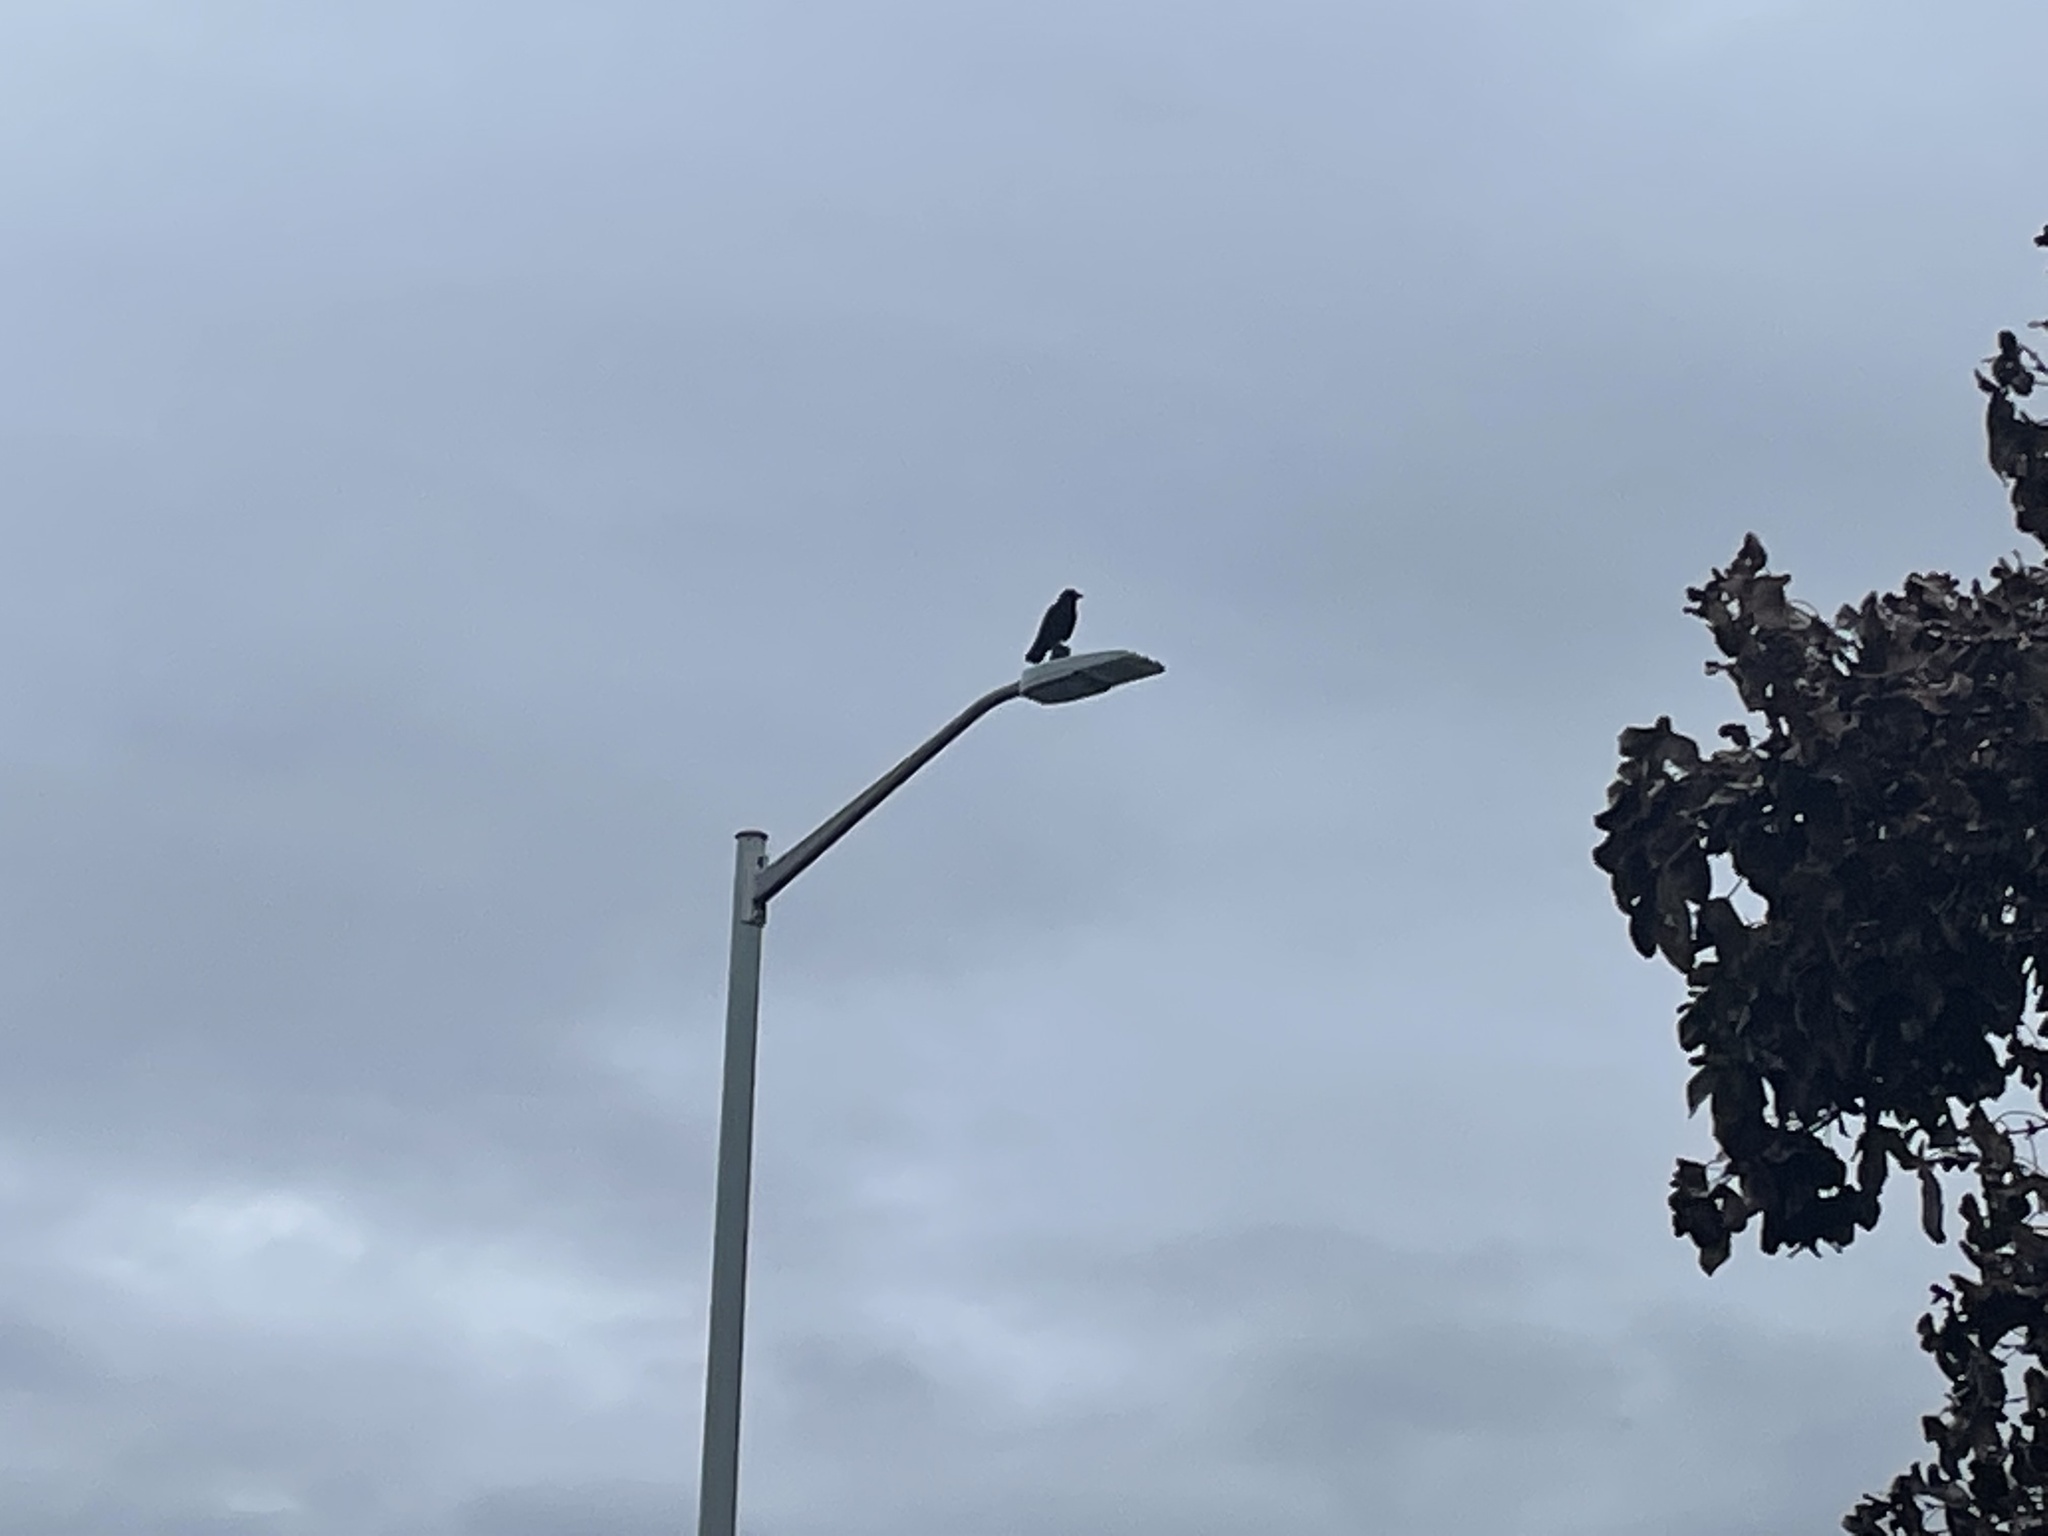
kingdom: Animalia
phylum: Chordata
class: Aves
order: Passeriformes
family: Corvidae
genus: Corvus
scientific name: Corvus brachyrhynchos
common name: American crow
